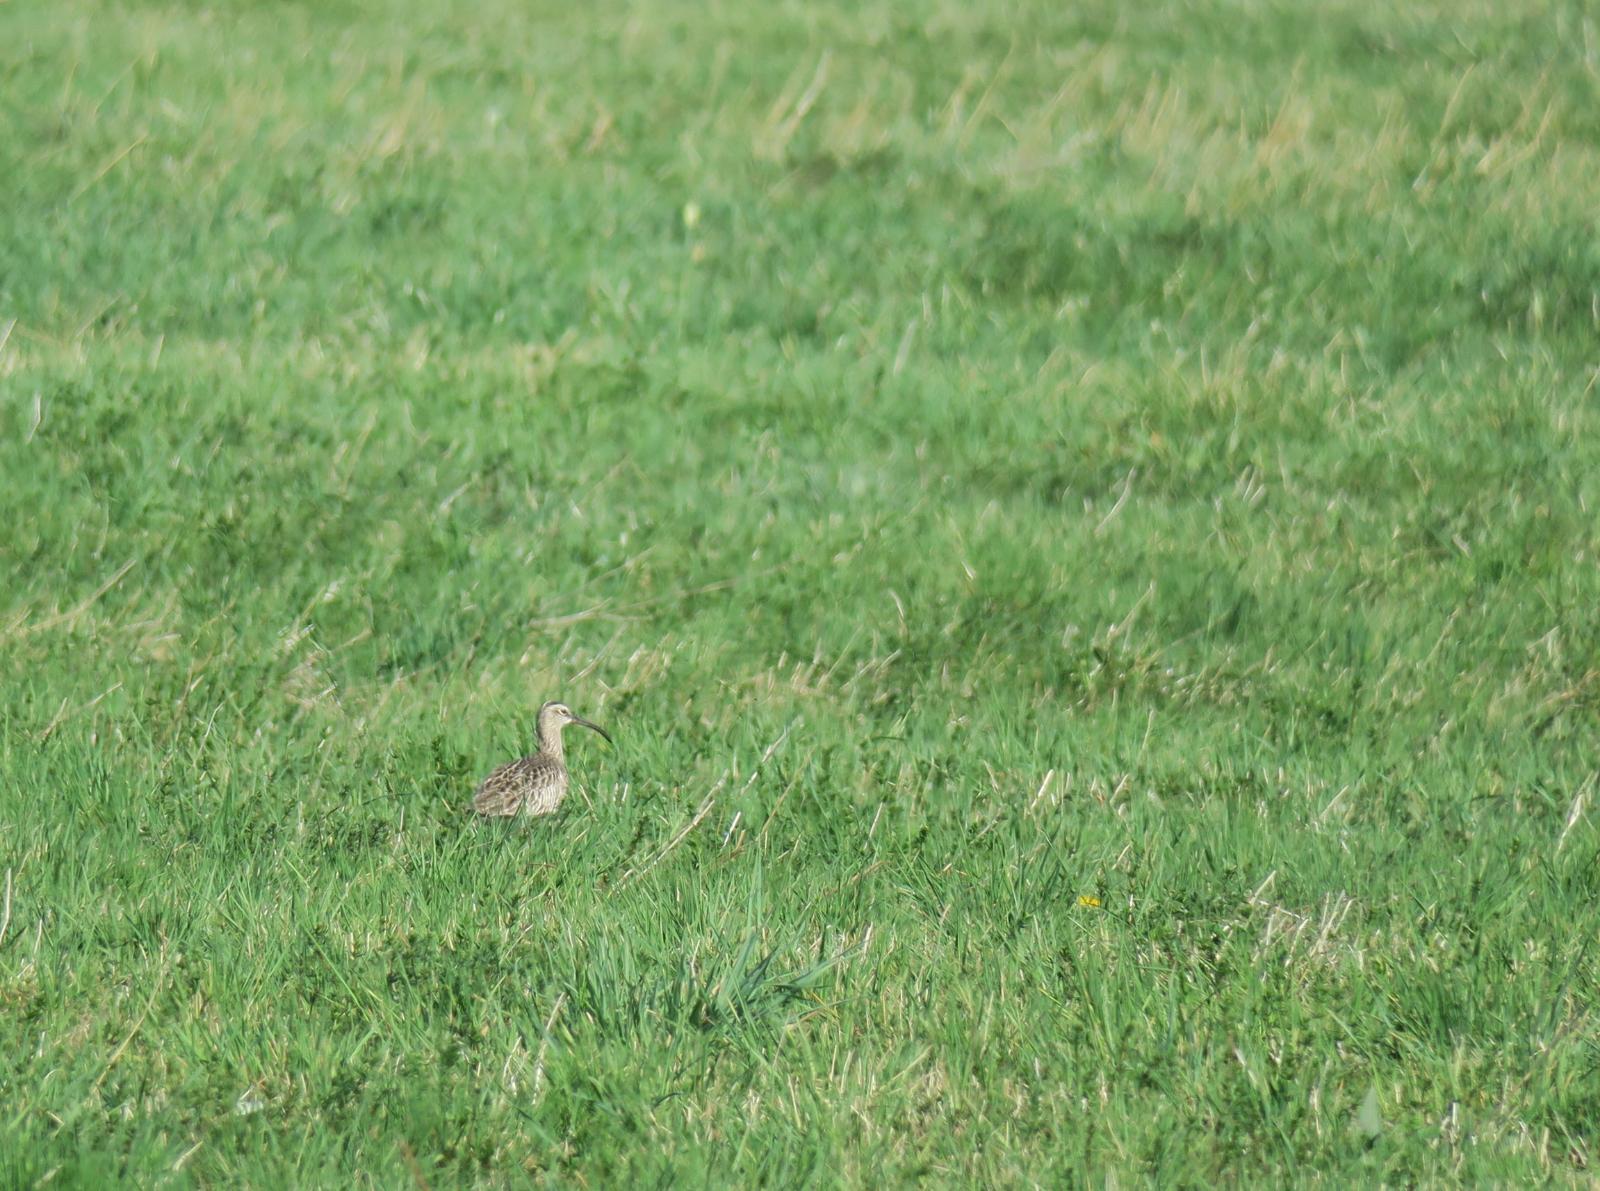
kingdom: Animalia
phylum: Chordata
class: Aves
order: Charadriiformes
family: Scolopacidae
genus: Numenius
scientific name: Numenius phaeopus
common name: Whimbrel
